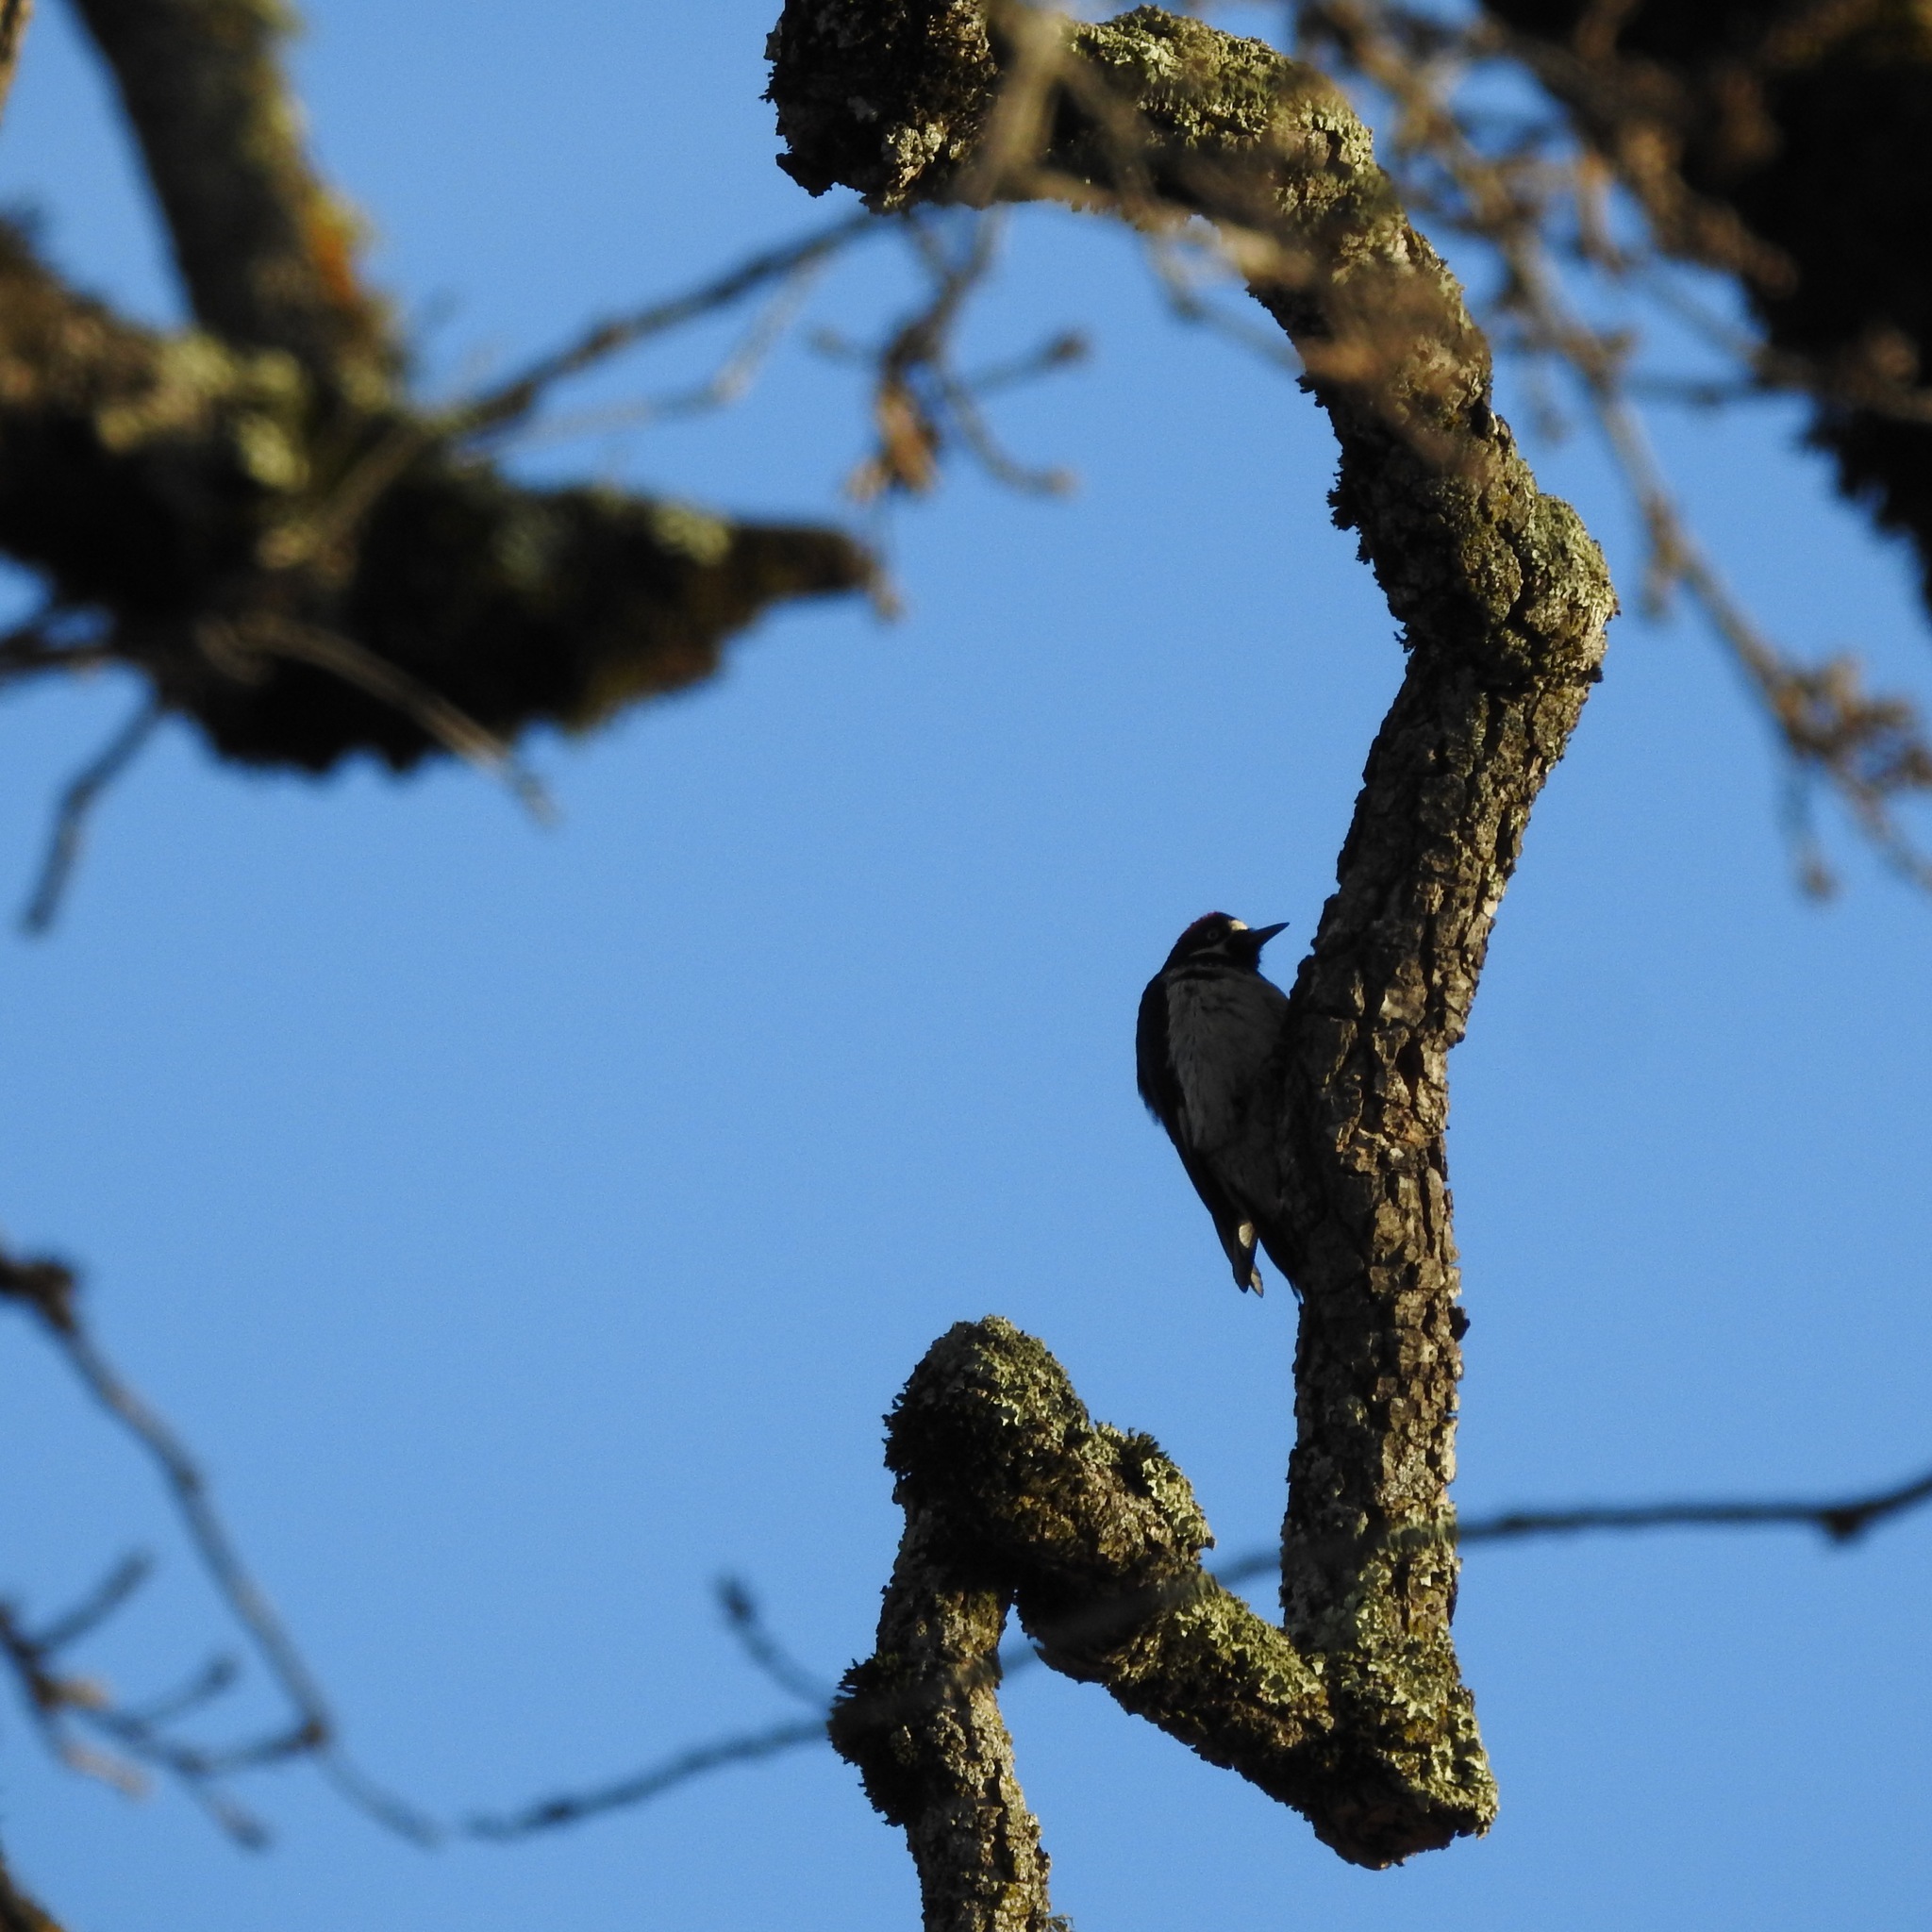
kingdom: Animalia
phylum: Chordata
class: Aves
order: Piciformes
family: Picidae
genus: Melanerpes
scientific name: Melanerpes formicivorus
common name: Acorn woodpecker
